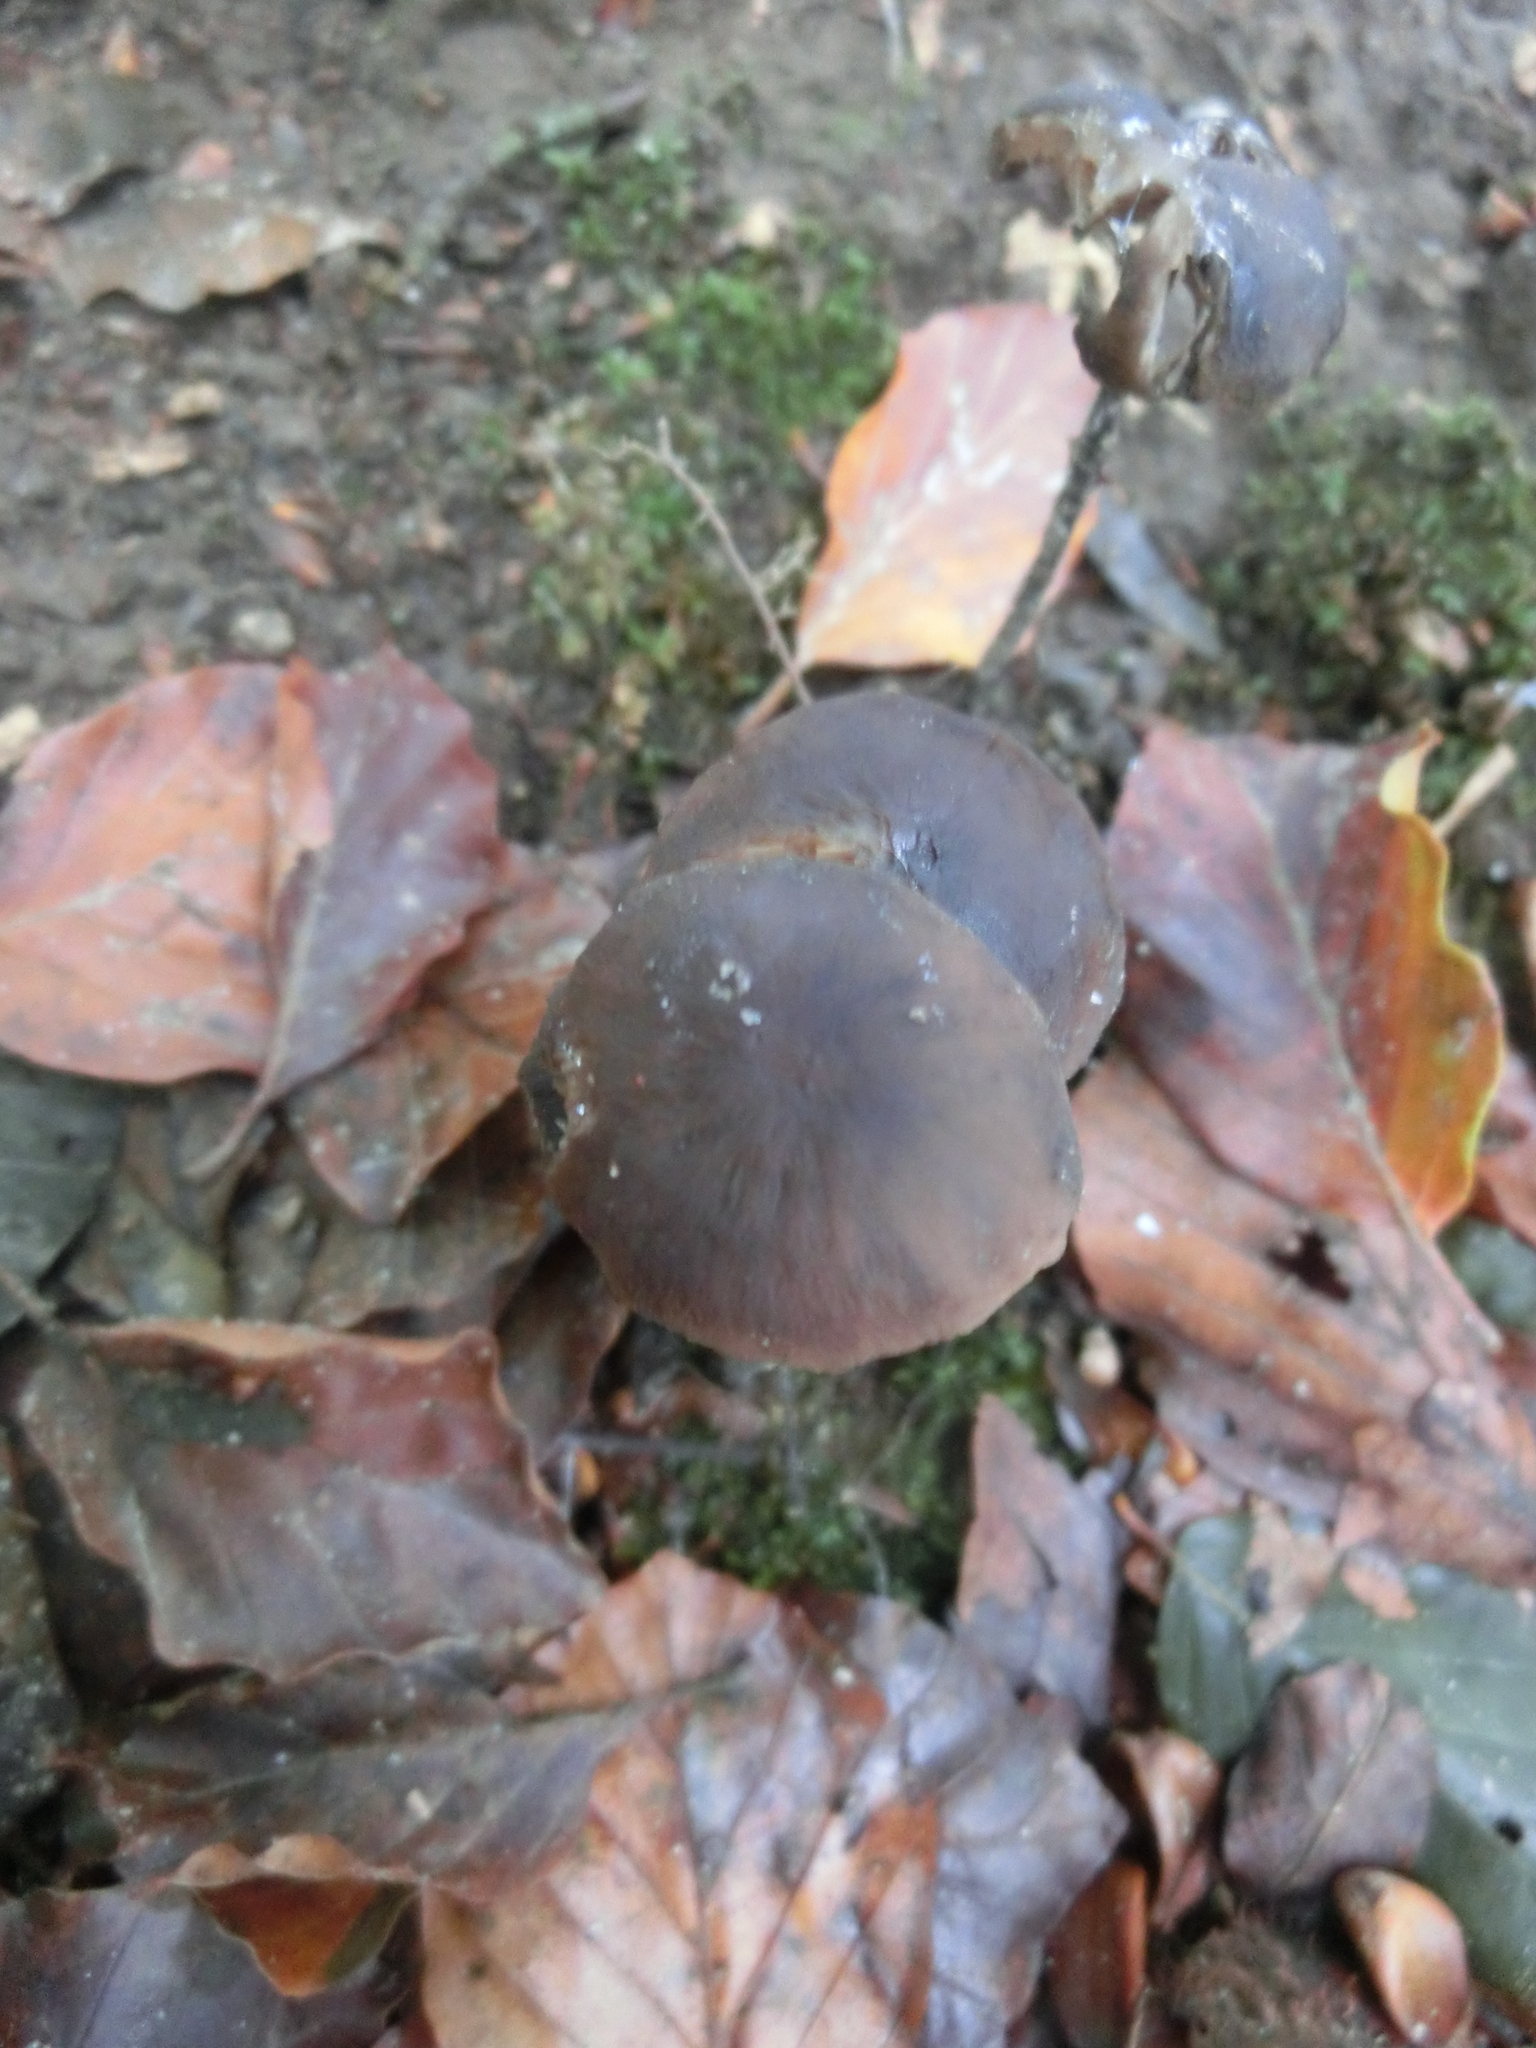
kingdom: Fungi
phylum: Basidiomycota
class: Agaricomycetes
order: Agaricales
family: Omphalotaceae
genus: Mycetinis
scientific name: Mycetinis alliaceus
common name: Garlic parachute
